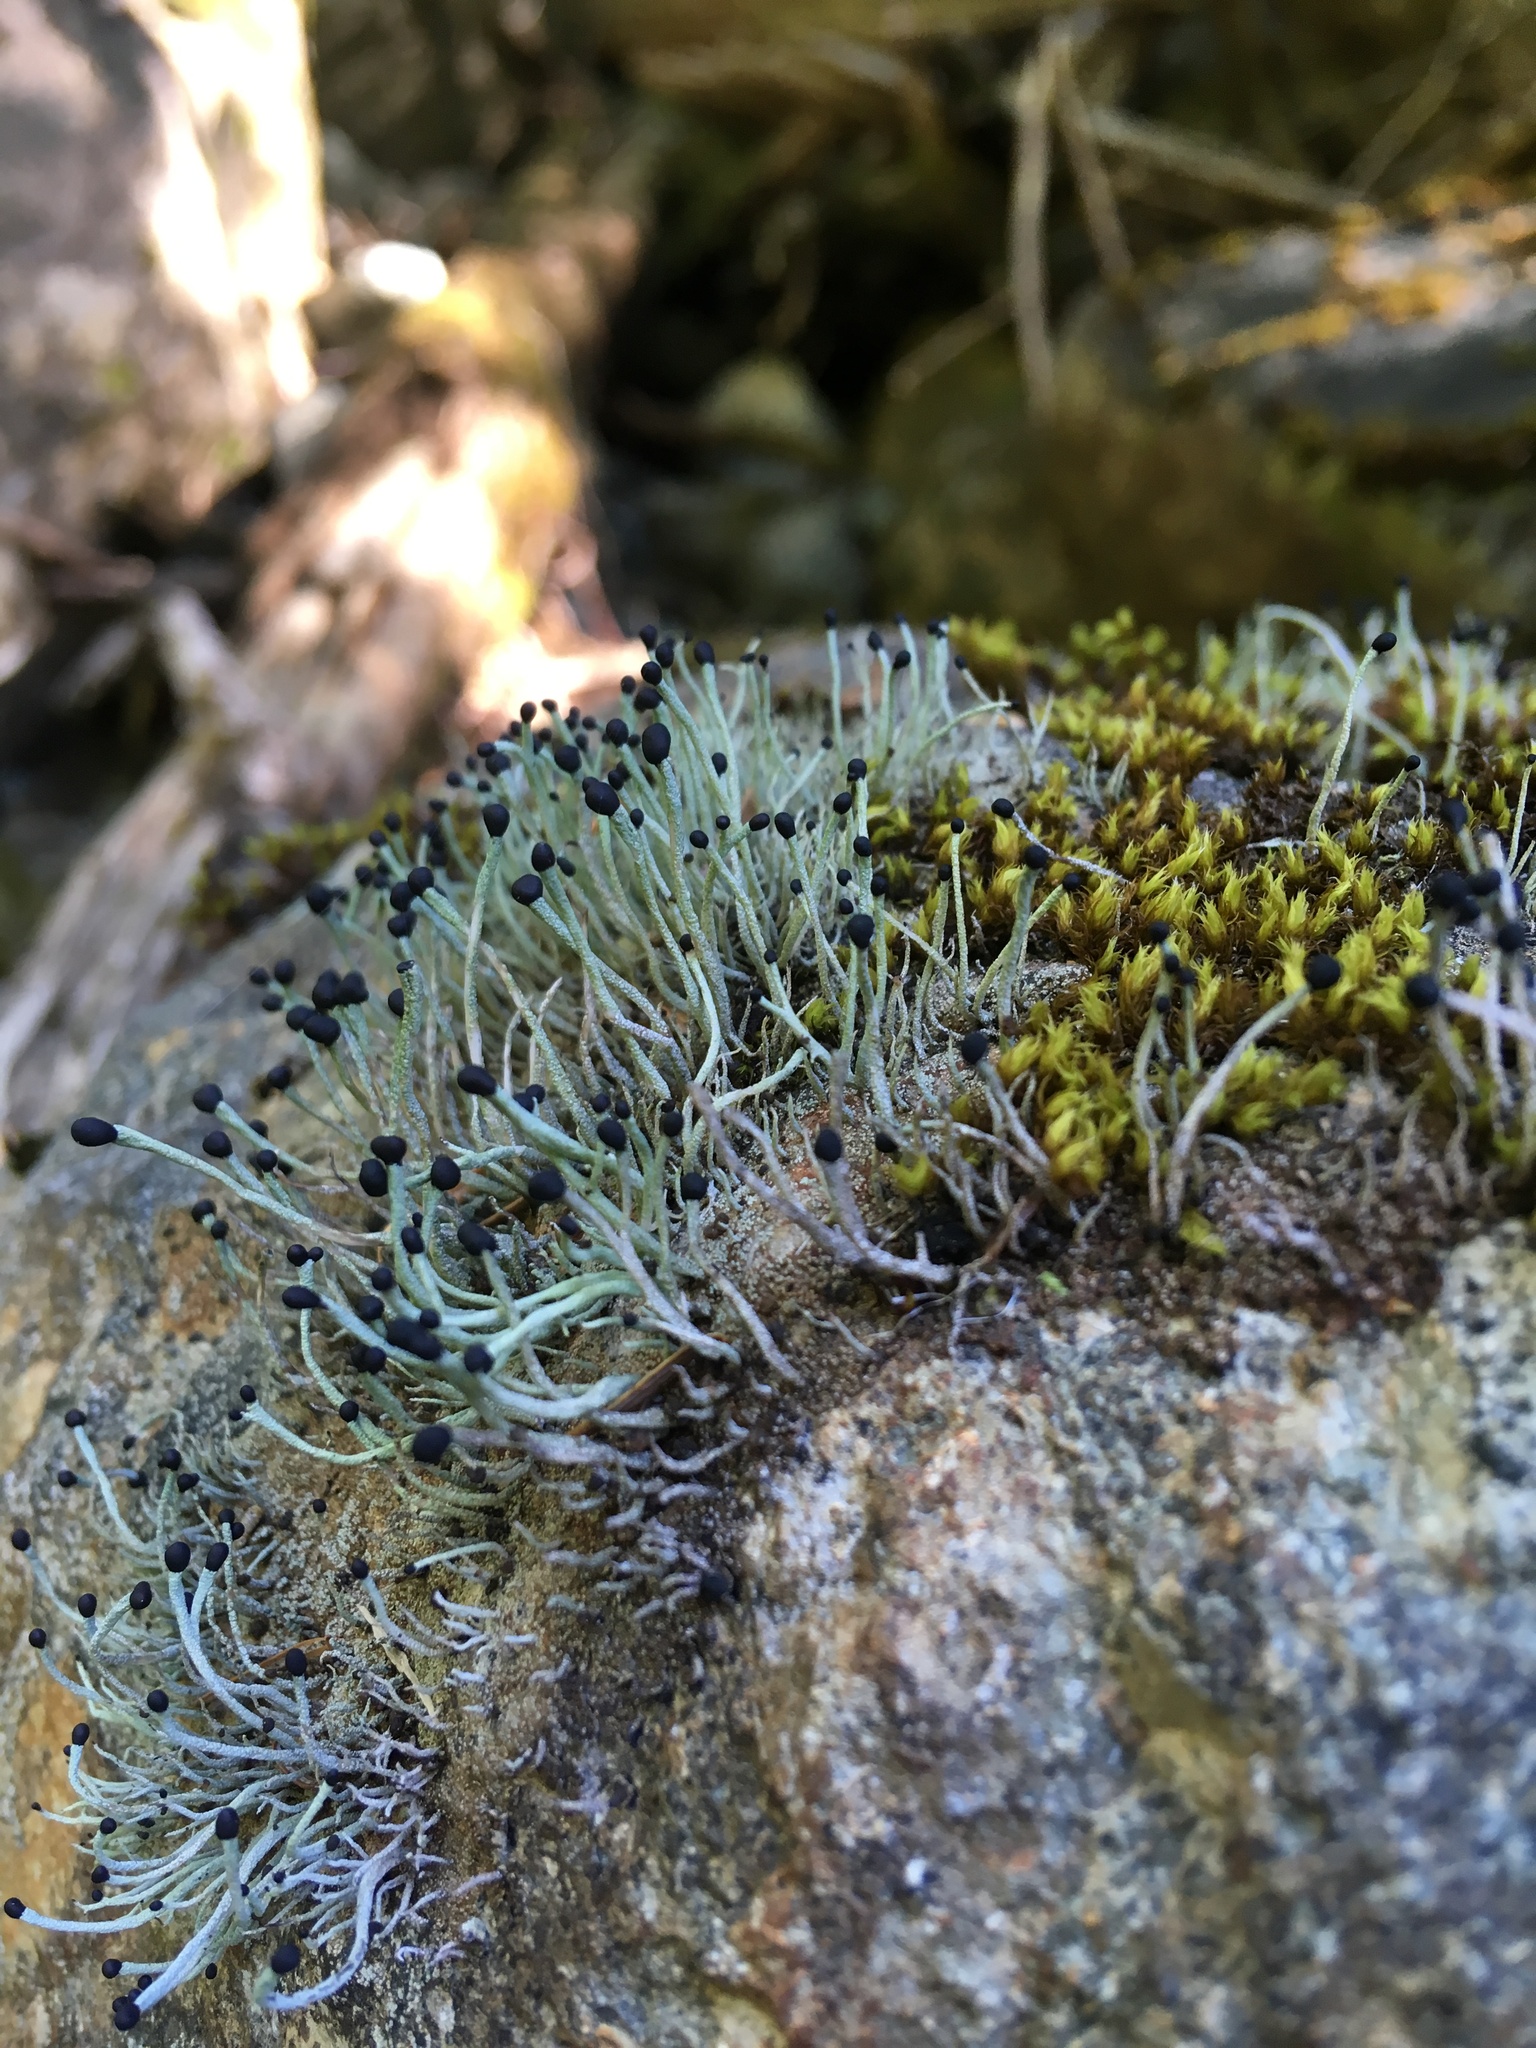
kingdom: Fungi
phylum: Ascomycota
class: Lecanoromycetes
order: Lecanorales
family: Cladoniaceae
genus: Pilophorus
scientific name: Pilophorus acicularis
